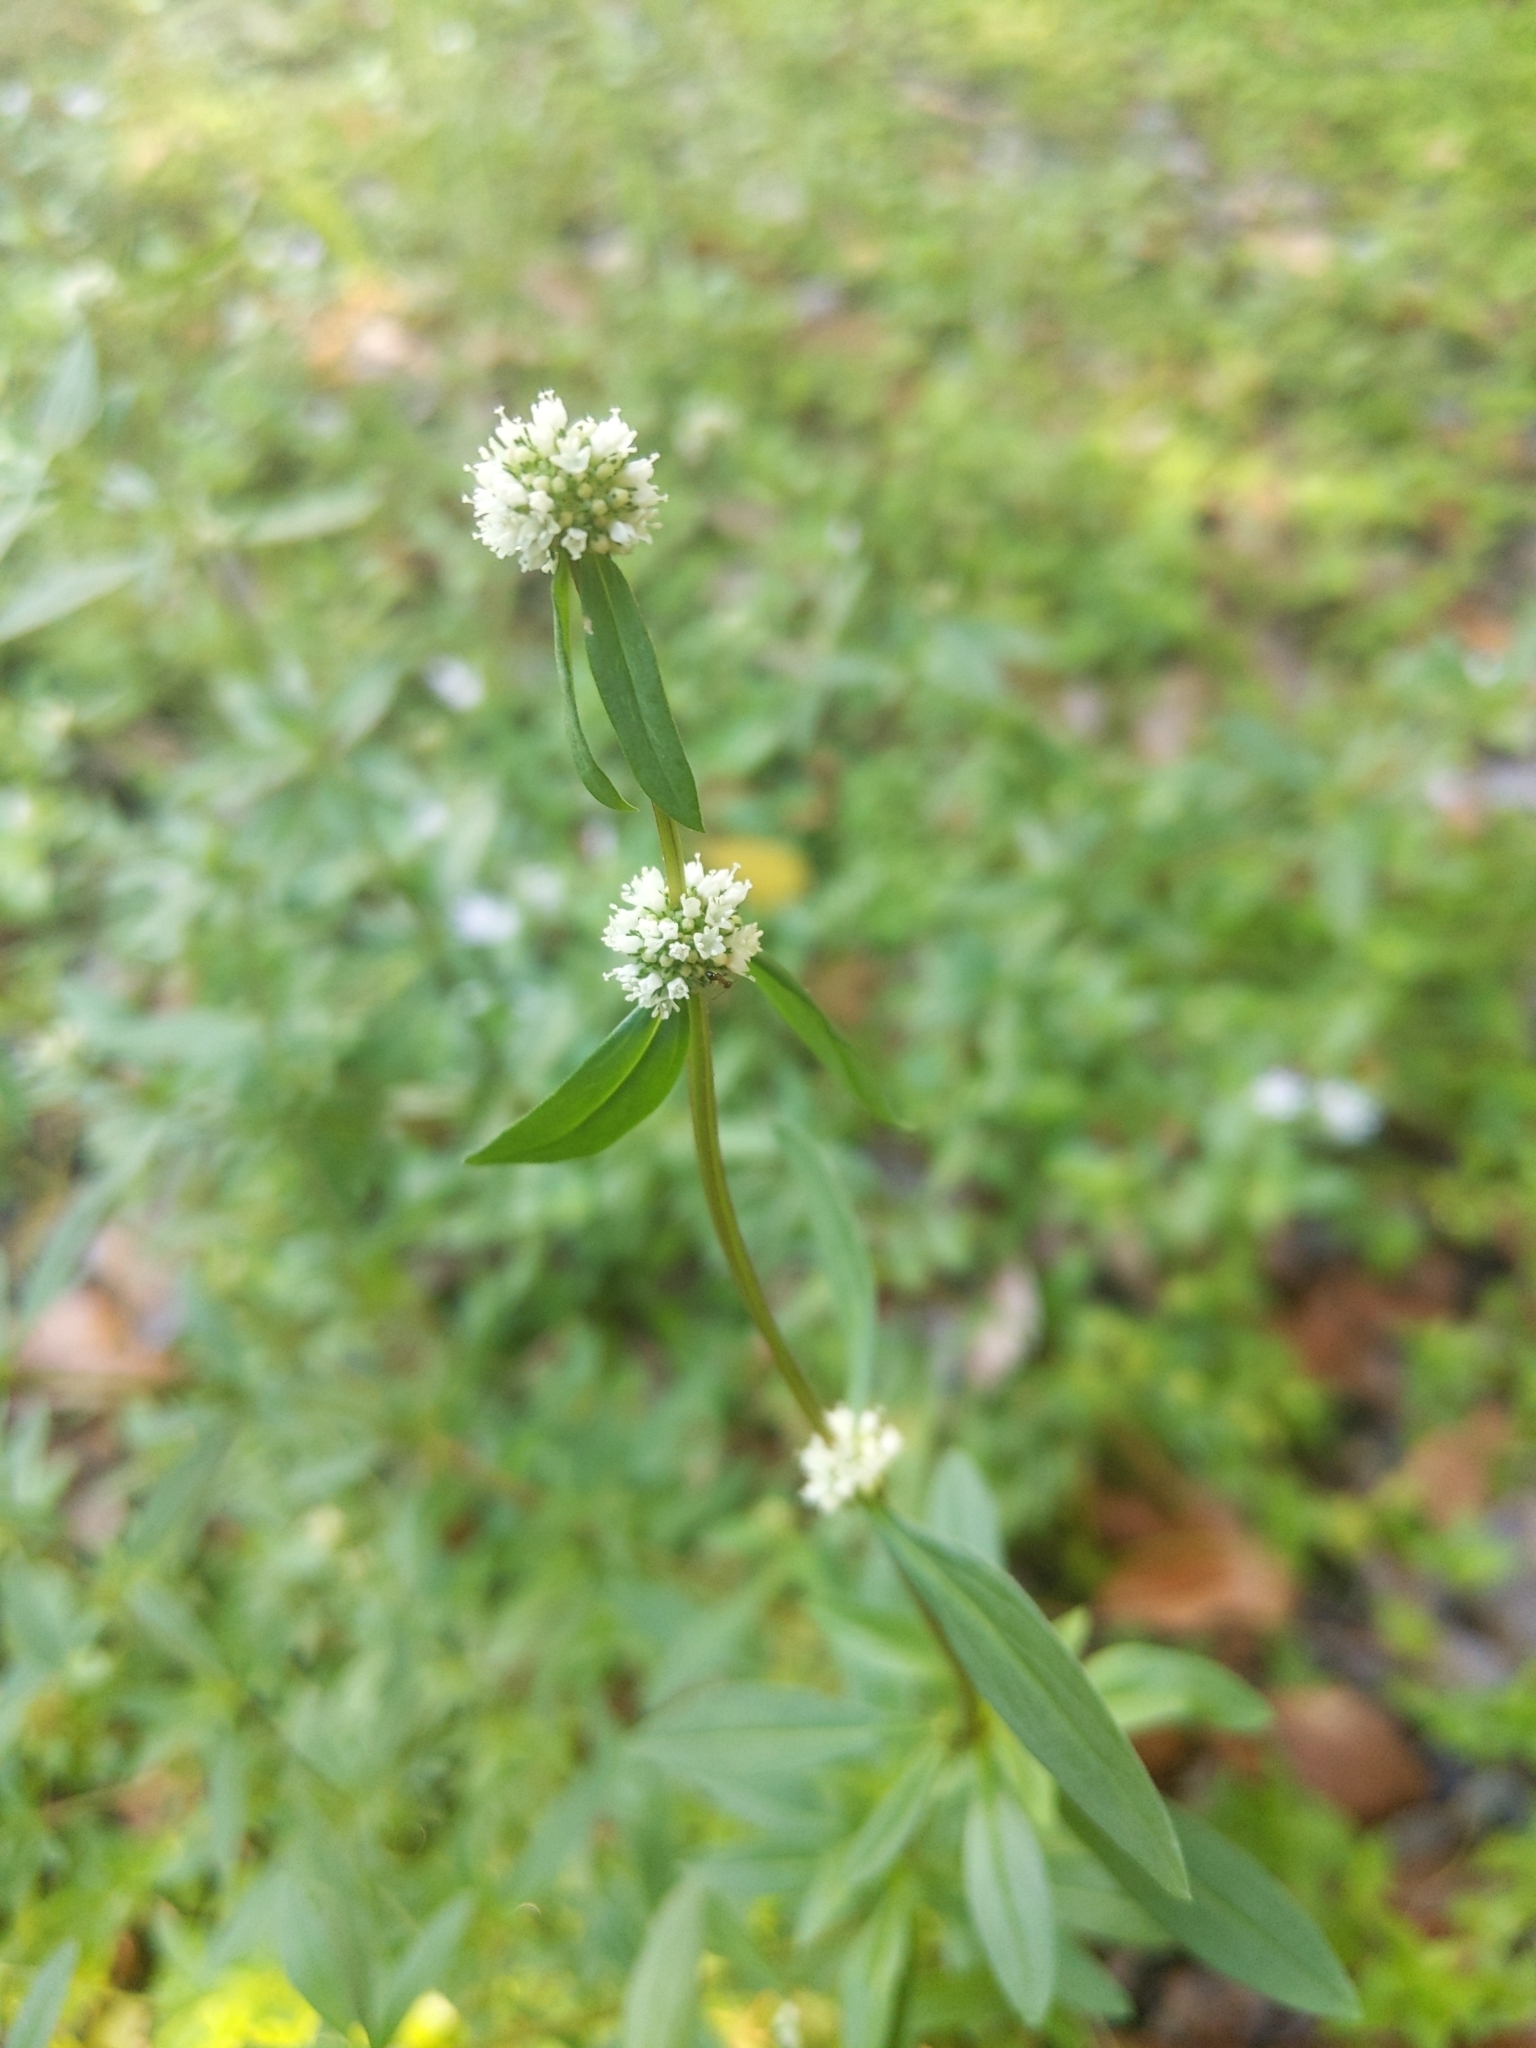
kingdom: Plantae
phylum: Tracheophyta
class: Magnoliopsida
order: Gentianales
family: Rubiaceae
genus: Spermacoce
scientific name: Spermacoce verticillata
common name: Shrubby false buttonweed
